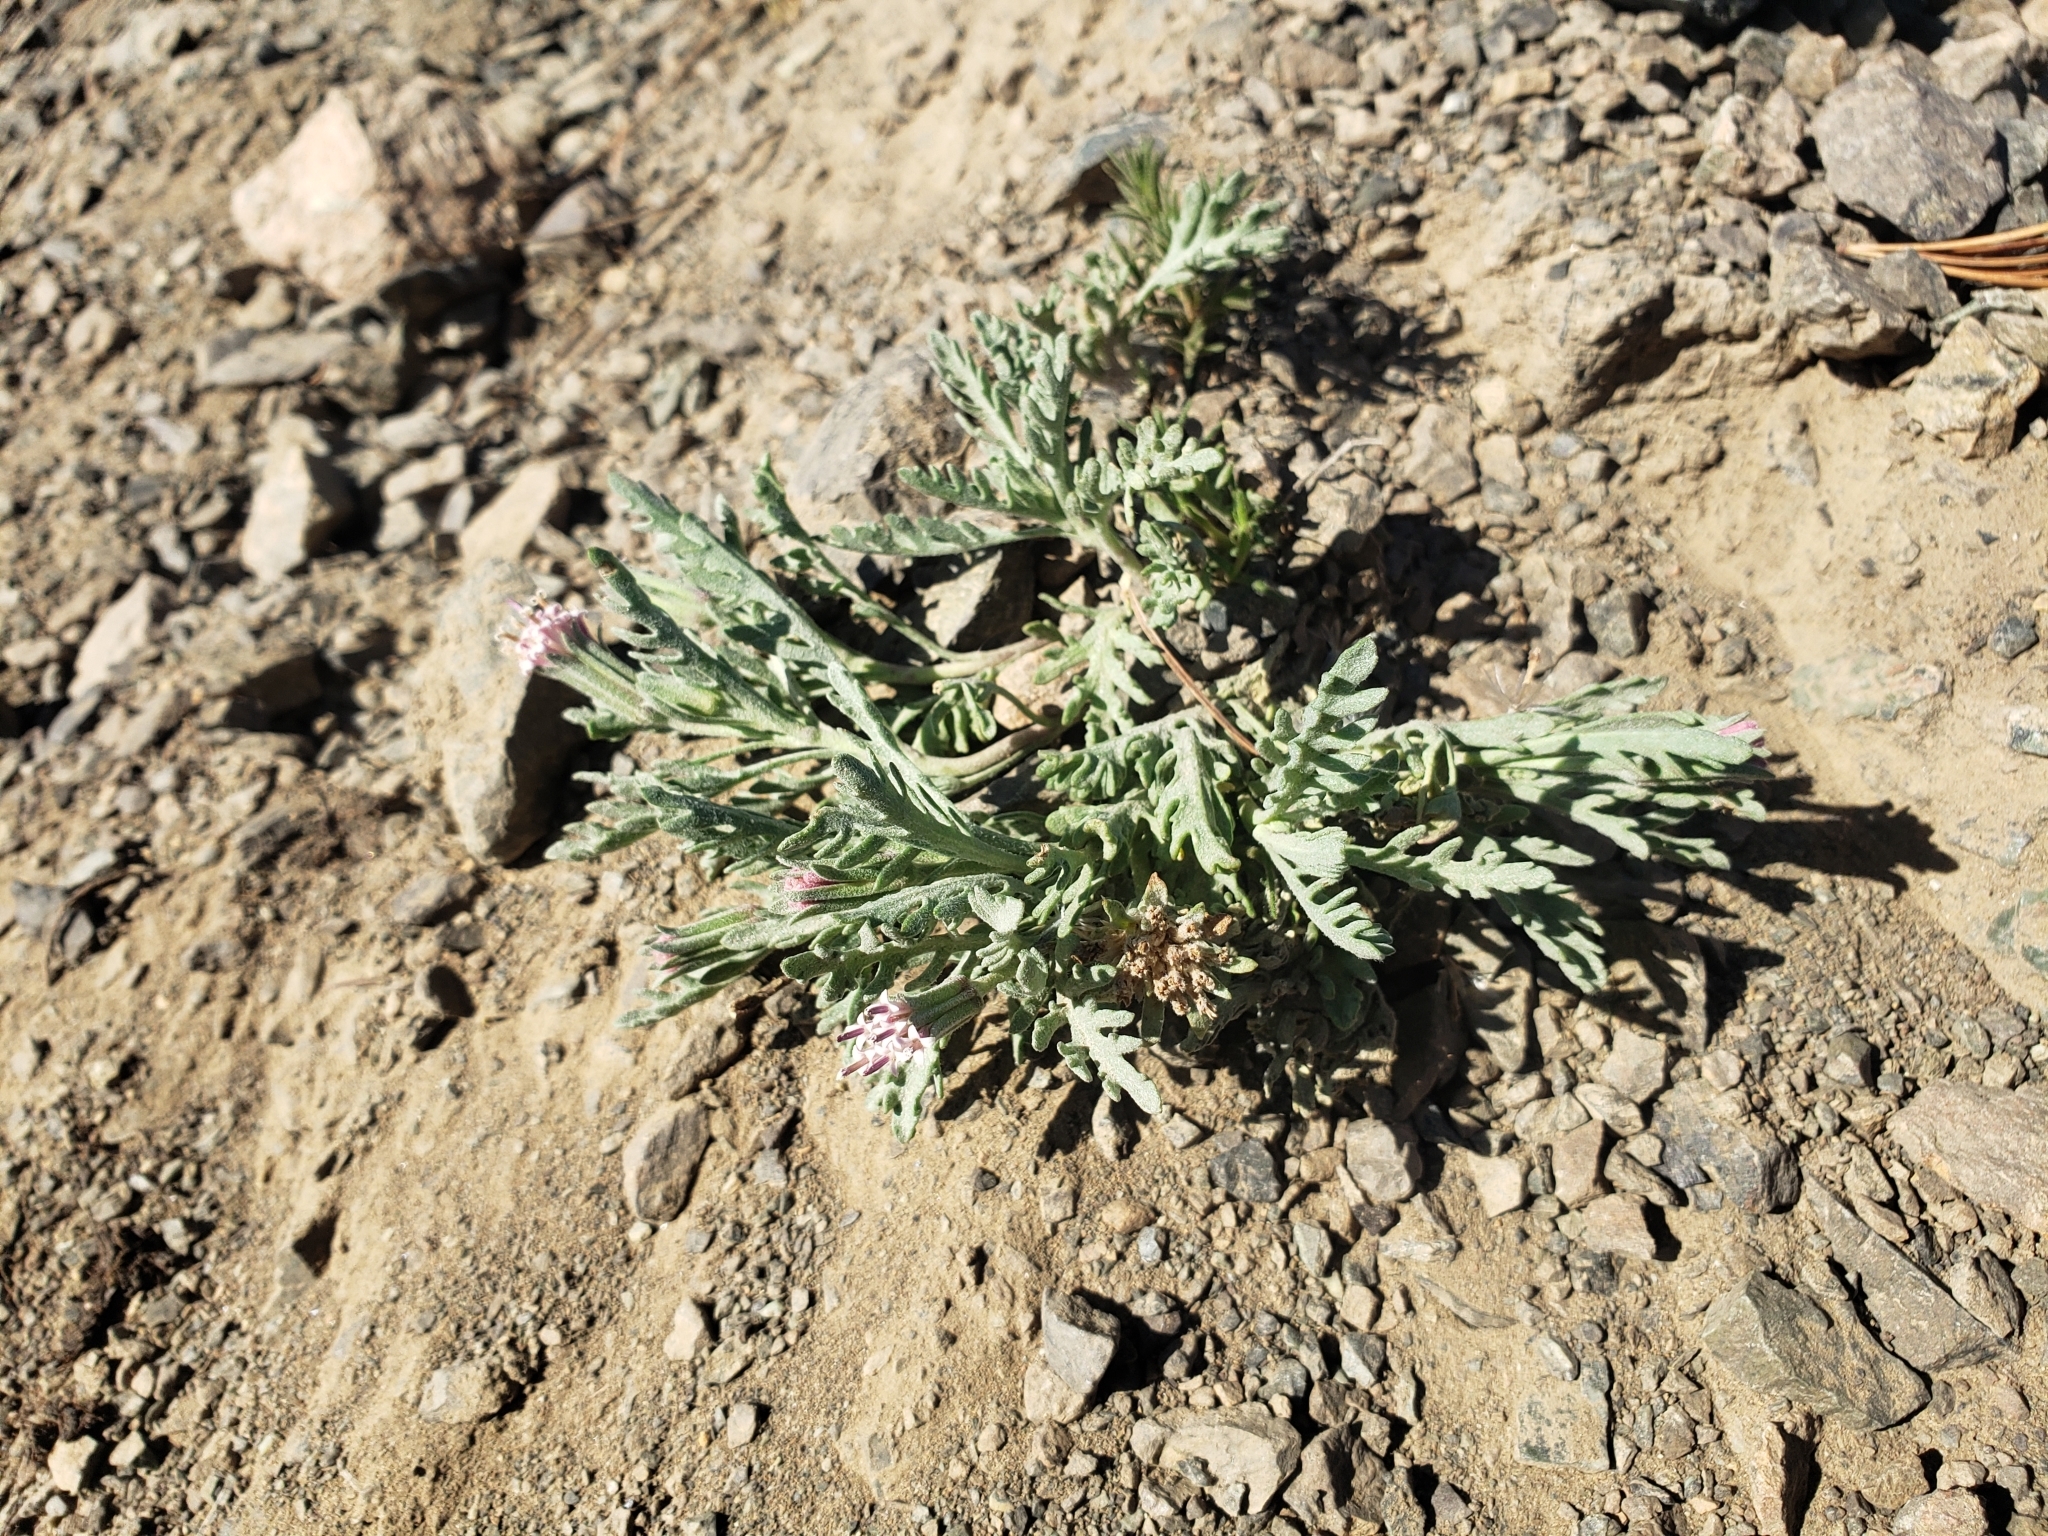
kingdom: Plantae
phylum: Tracheophyta
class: Magnoliopsida
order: Asterales
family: Asteraceae
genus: Chaenactis
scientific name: Chaenactis thompsonii
